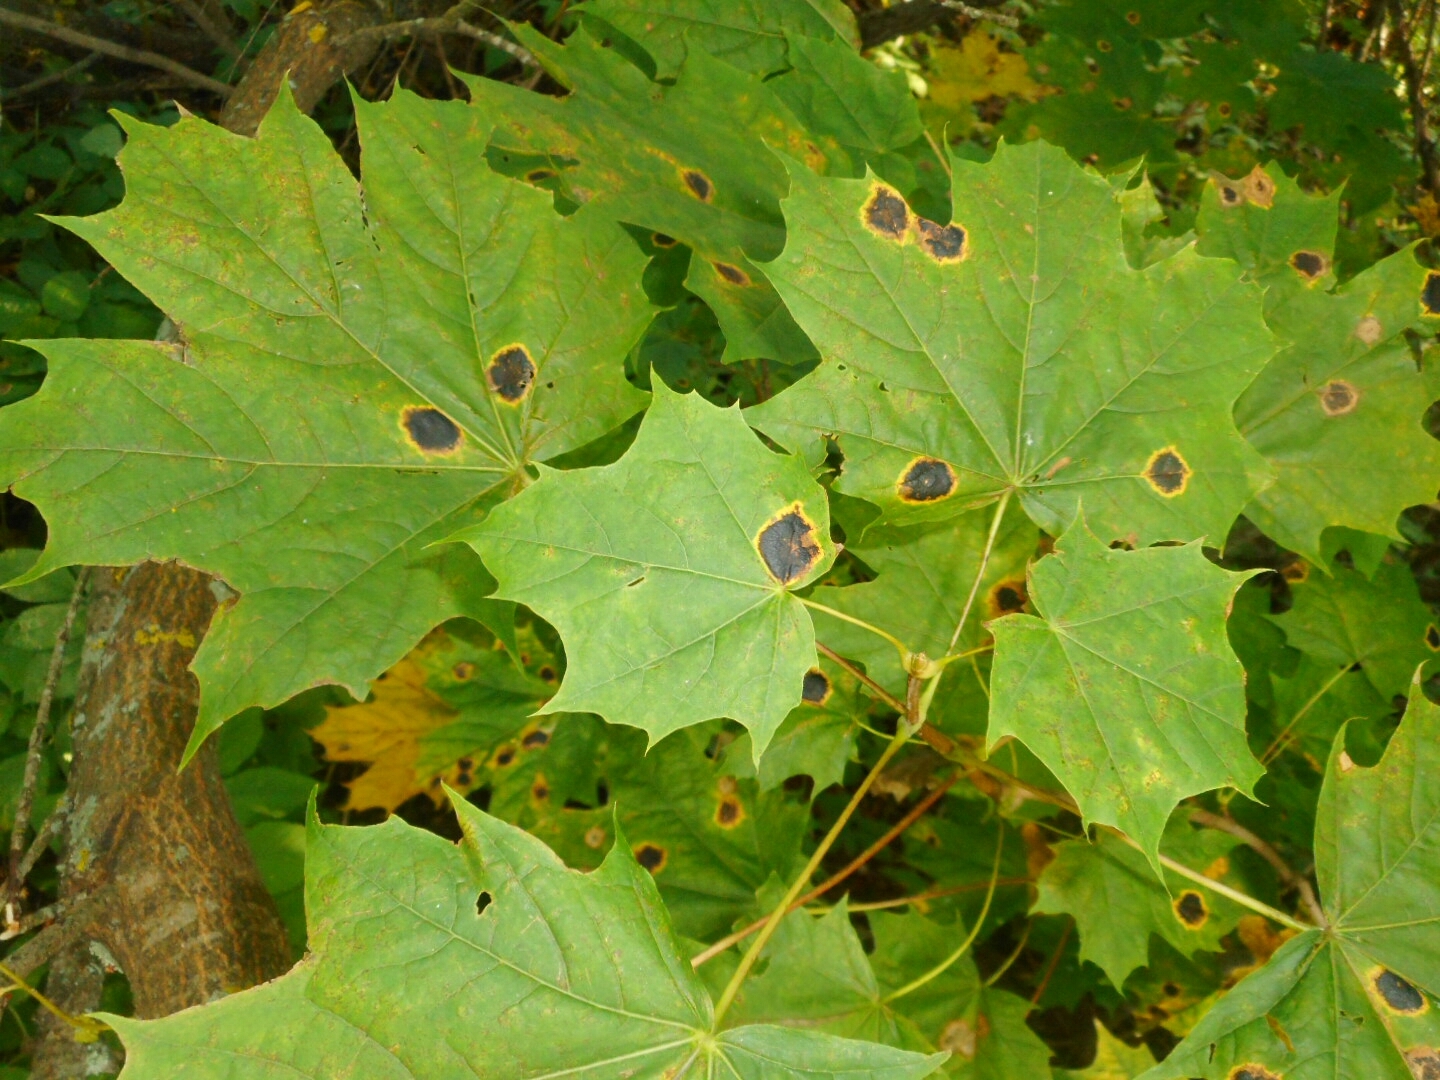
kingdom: Fungi
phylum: Ascomycota
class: Leotiomycetes
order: Rhytismatales
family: Rhytismataceae
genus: Rhytisma
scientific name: Rhytisma acerinum
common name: European tar spot
